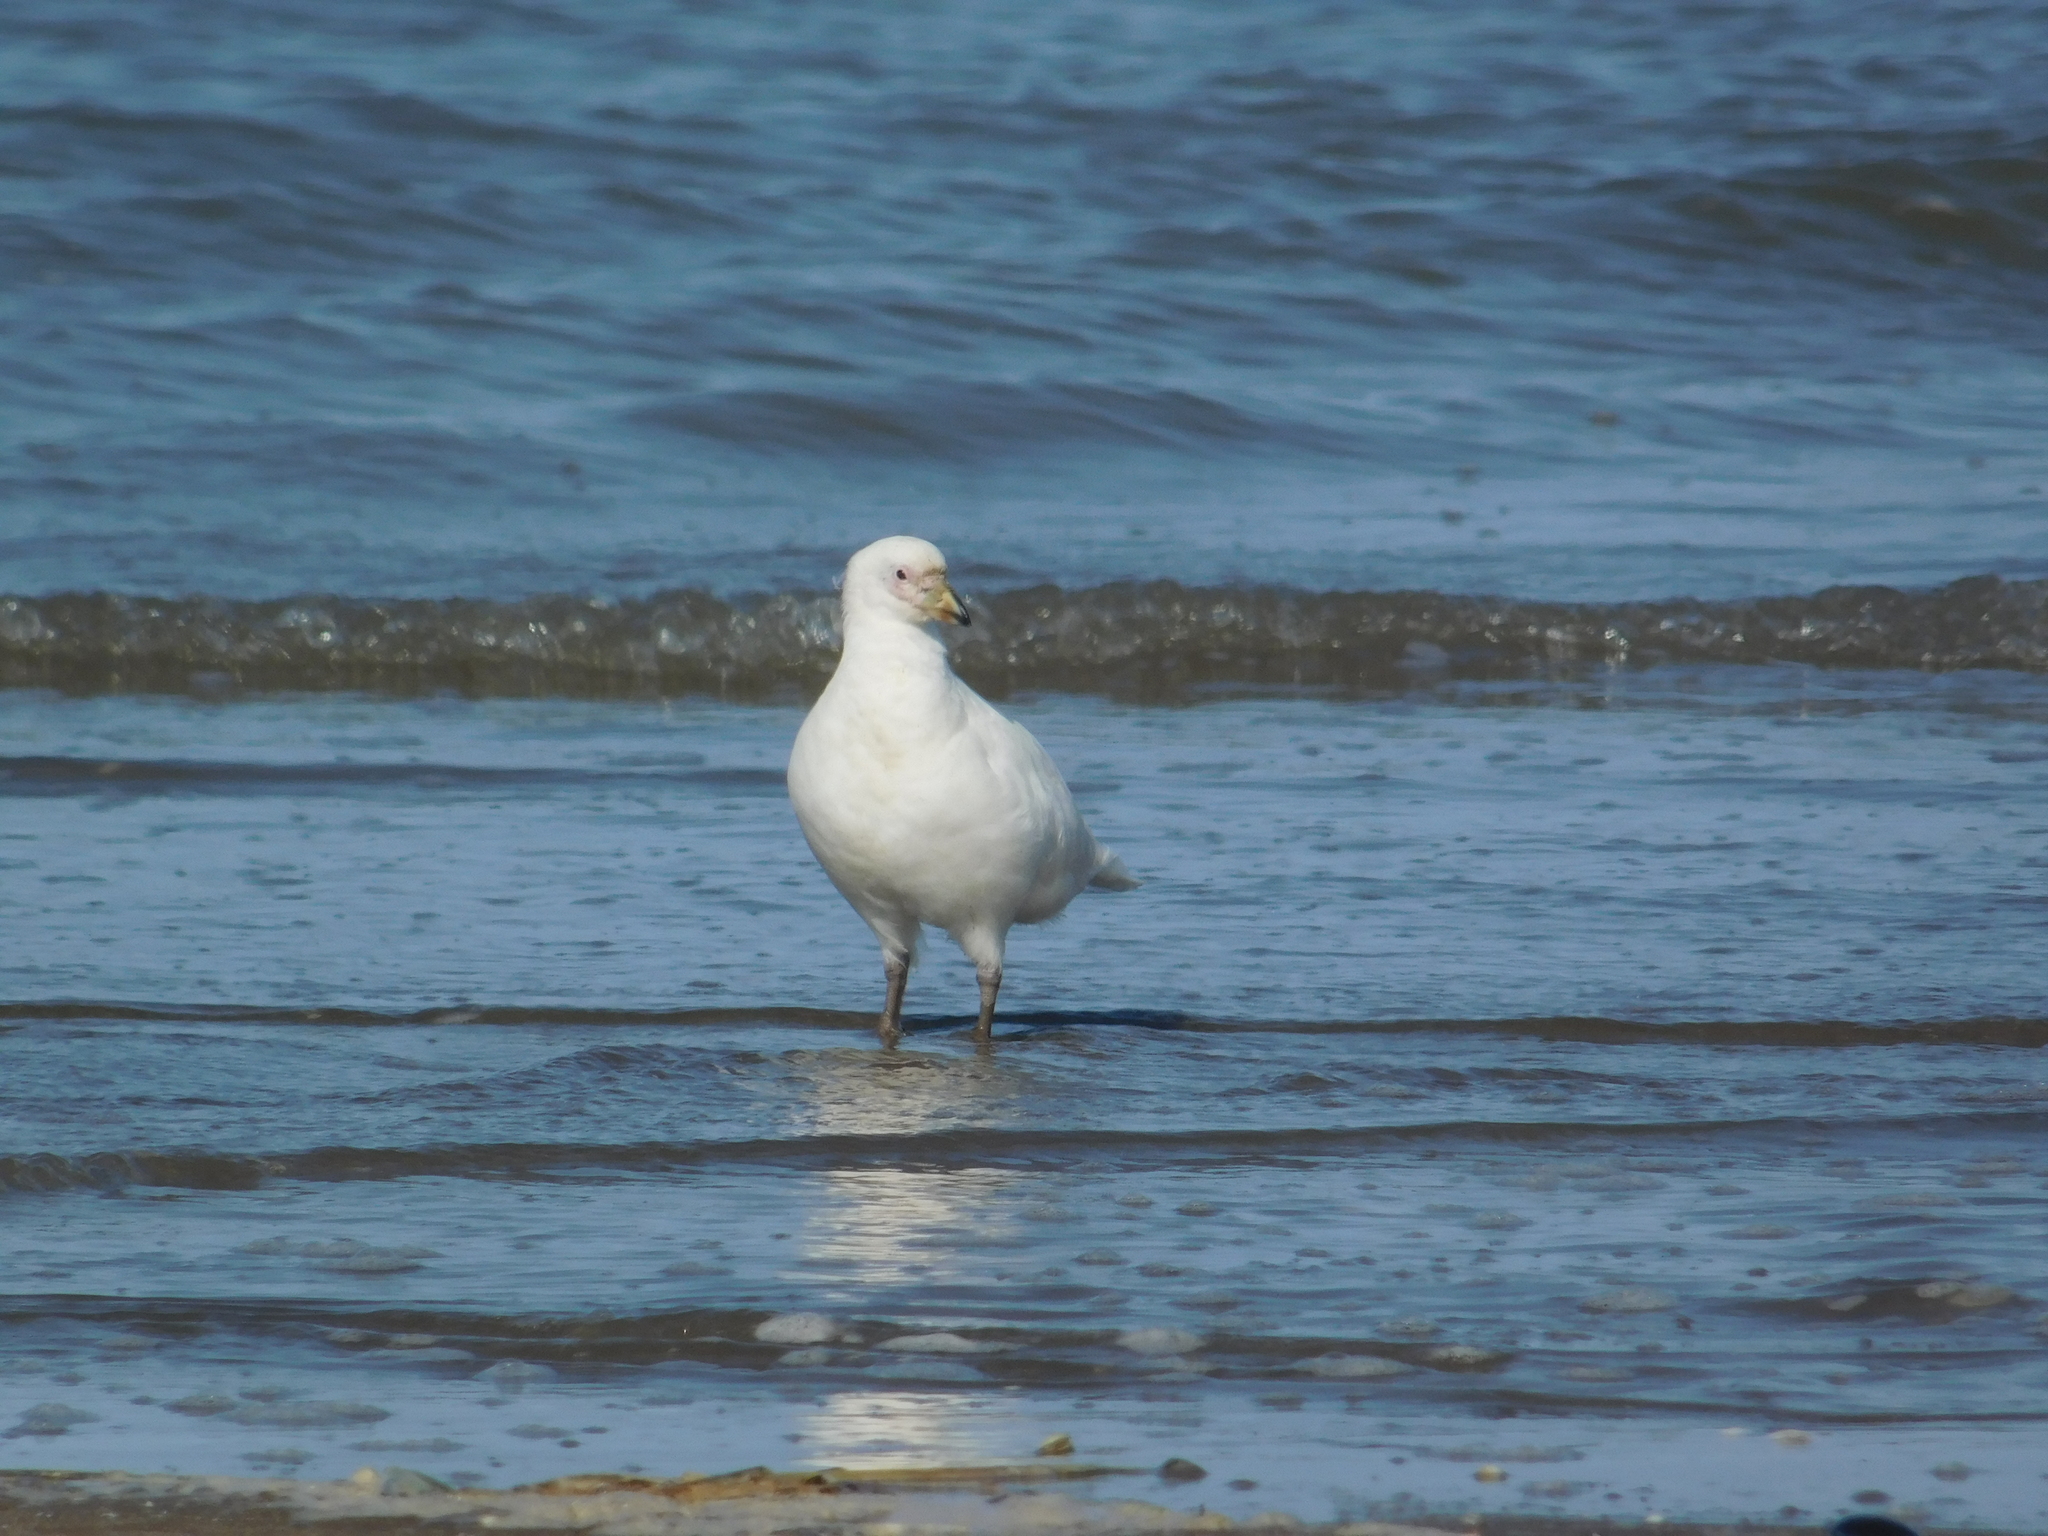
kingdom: Animalia
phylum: Chordata
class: Aves
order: Charadriiformes
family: Chionidae
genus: Chionis
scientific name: Chionis albus
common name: Snowy sheathbill
